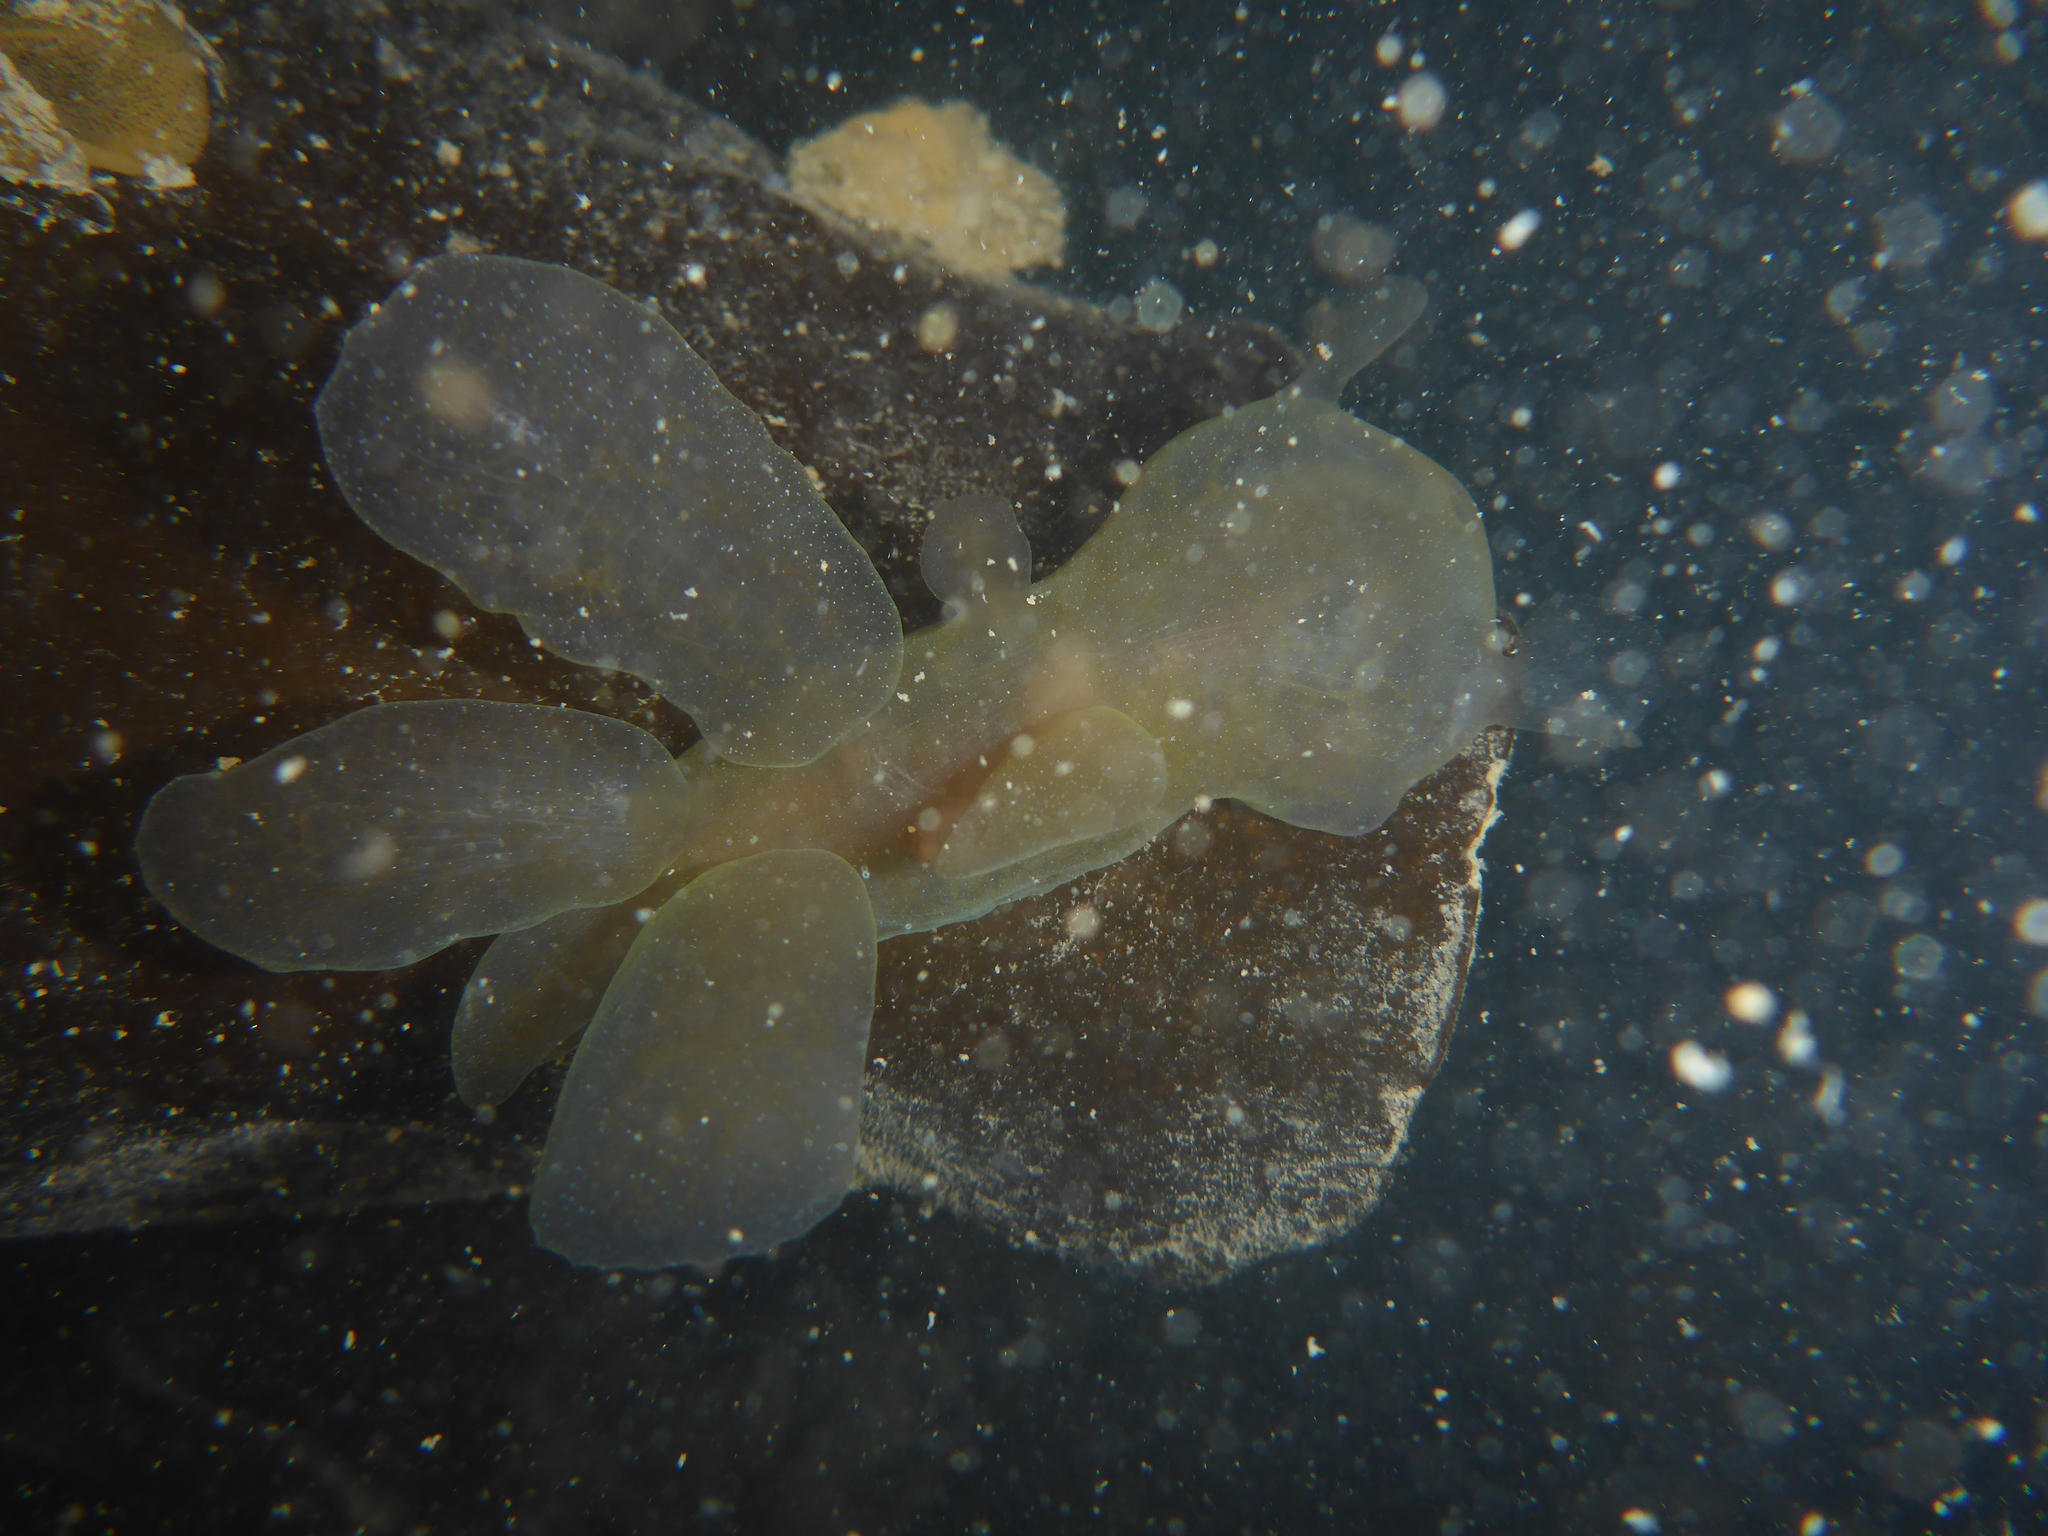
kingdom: Animalia
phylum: Mollusca
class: Gastropoda
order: Nudibranchia
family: Tethydidae
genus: Melibe
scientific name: Melibe leonina
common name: Lion nudibranch
